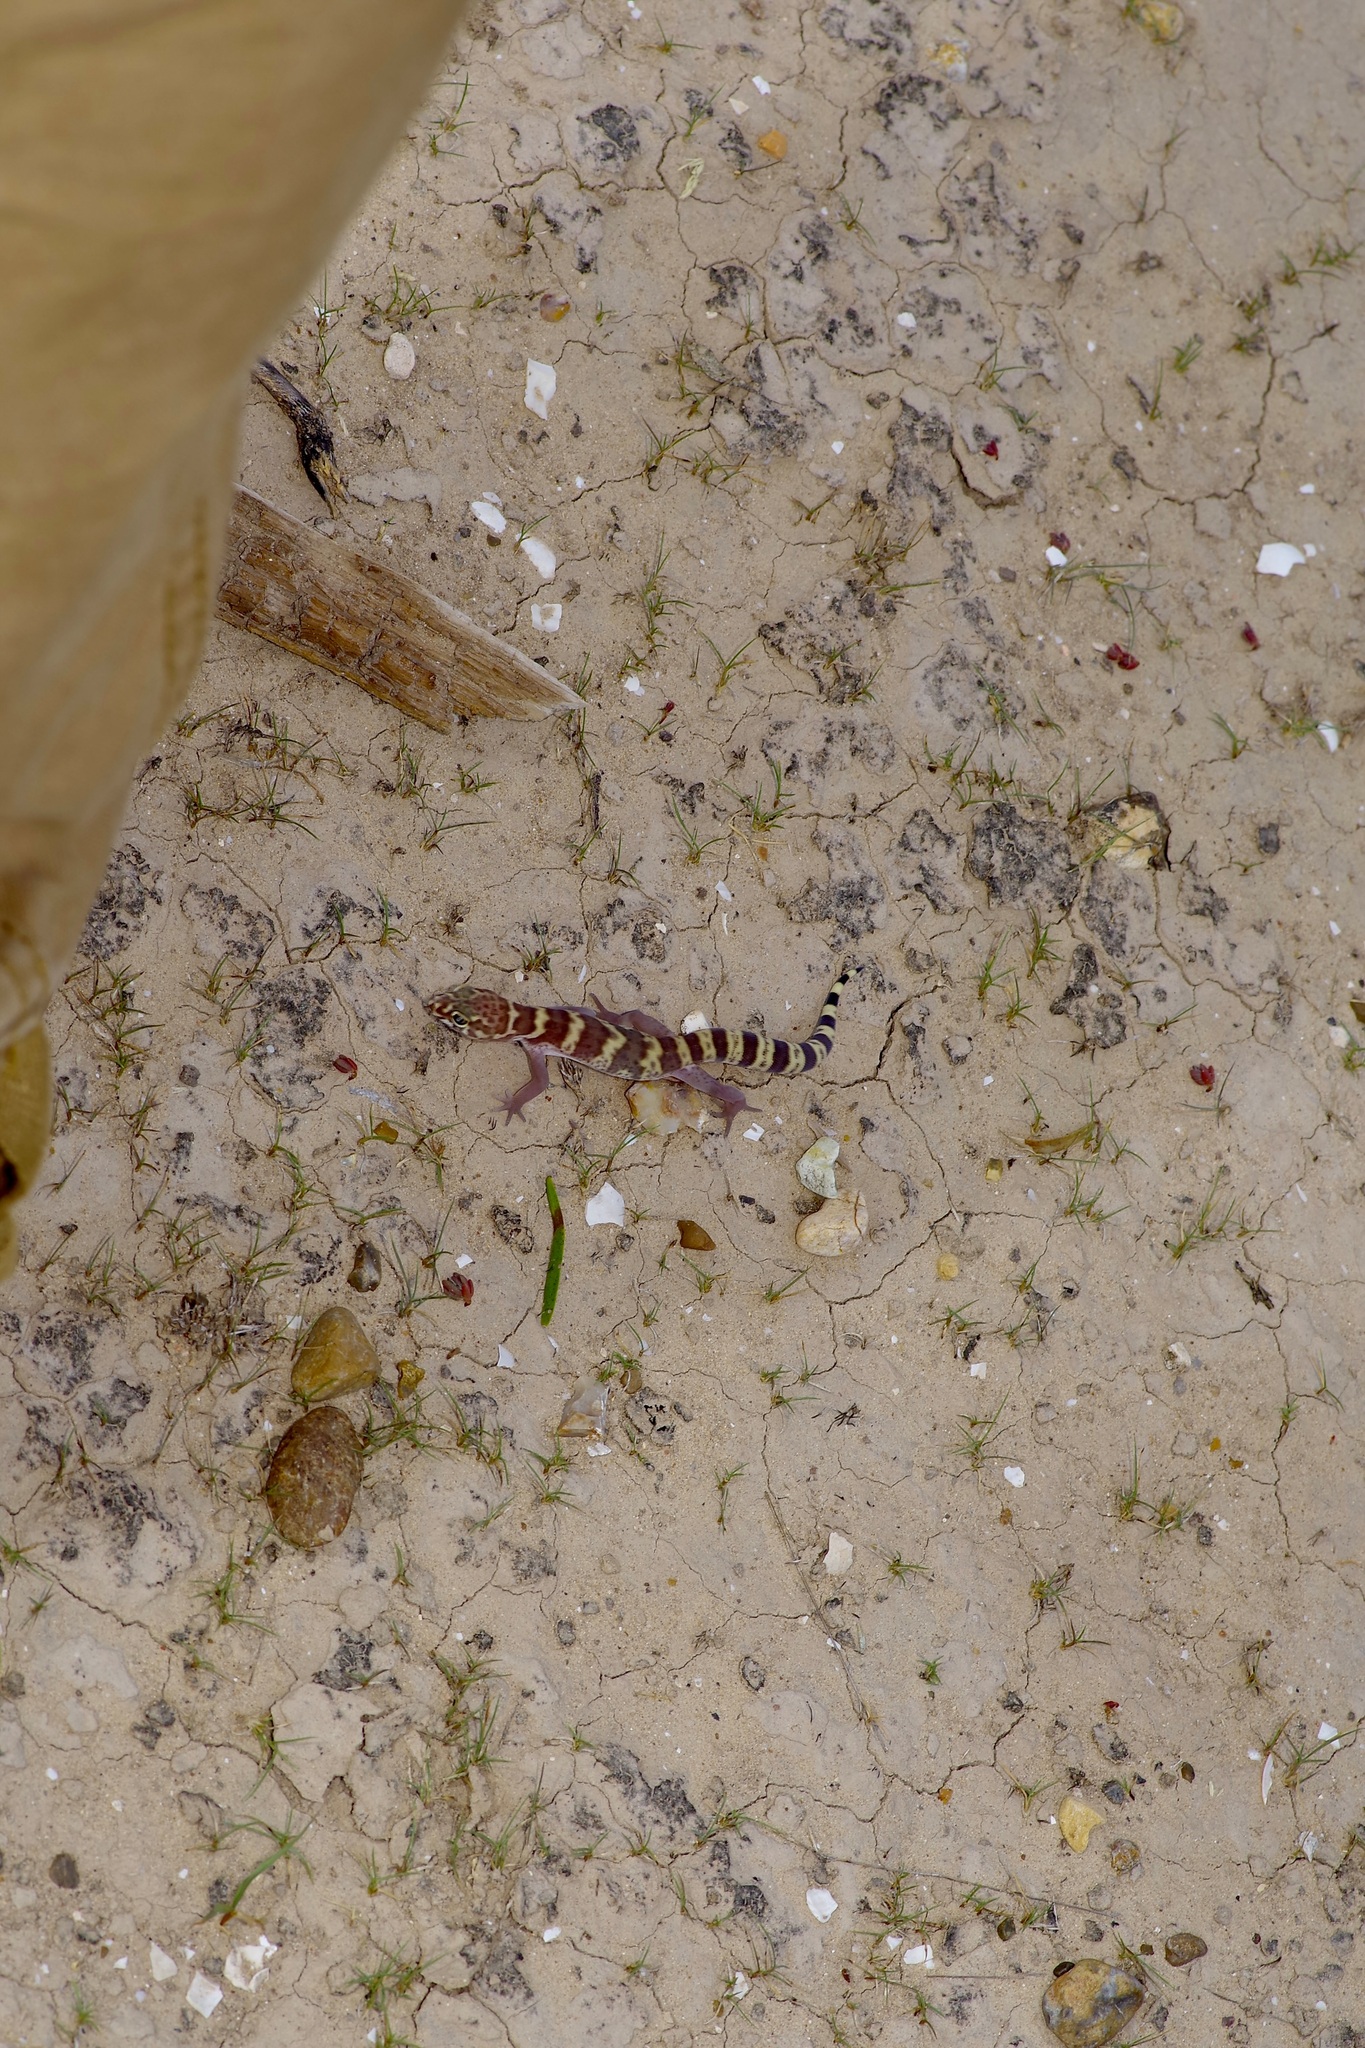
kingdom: Animalia
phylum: Chordata
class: Squamata
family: Eublepharidae
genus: Coleonyx
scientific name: Coleonyx brevis
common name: Texas banded gecko
